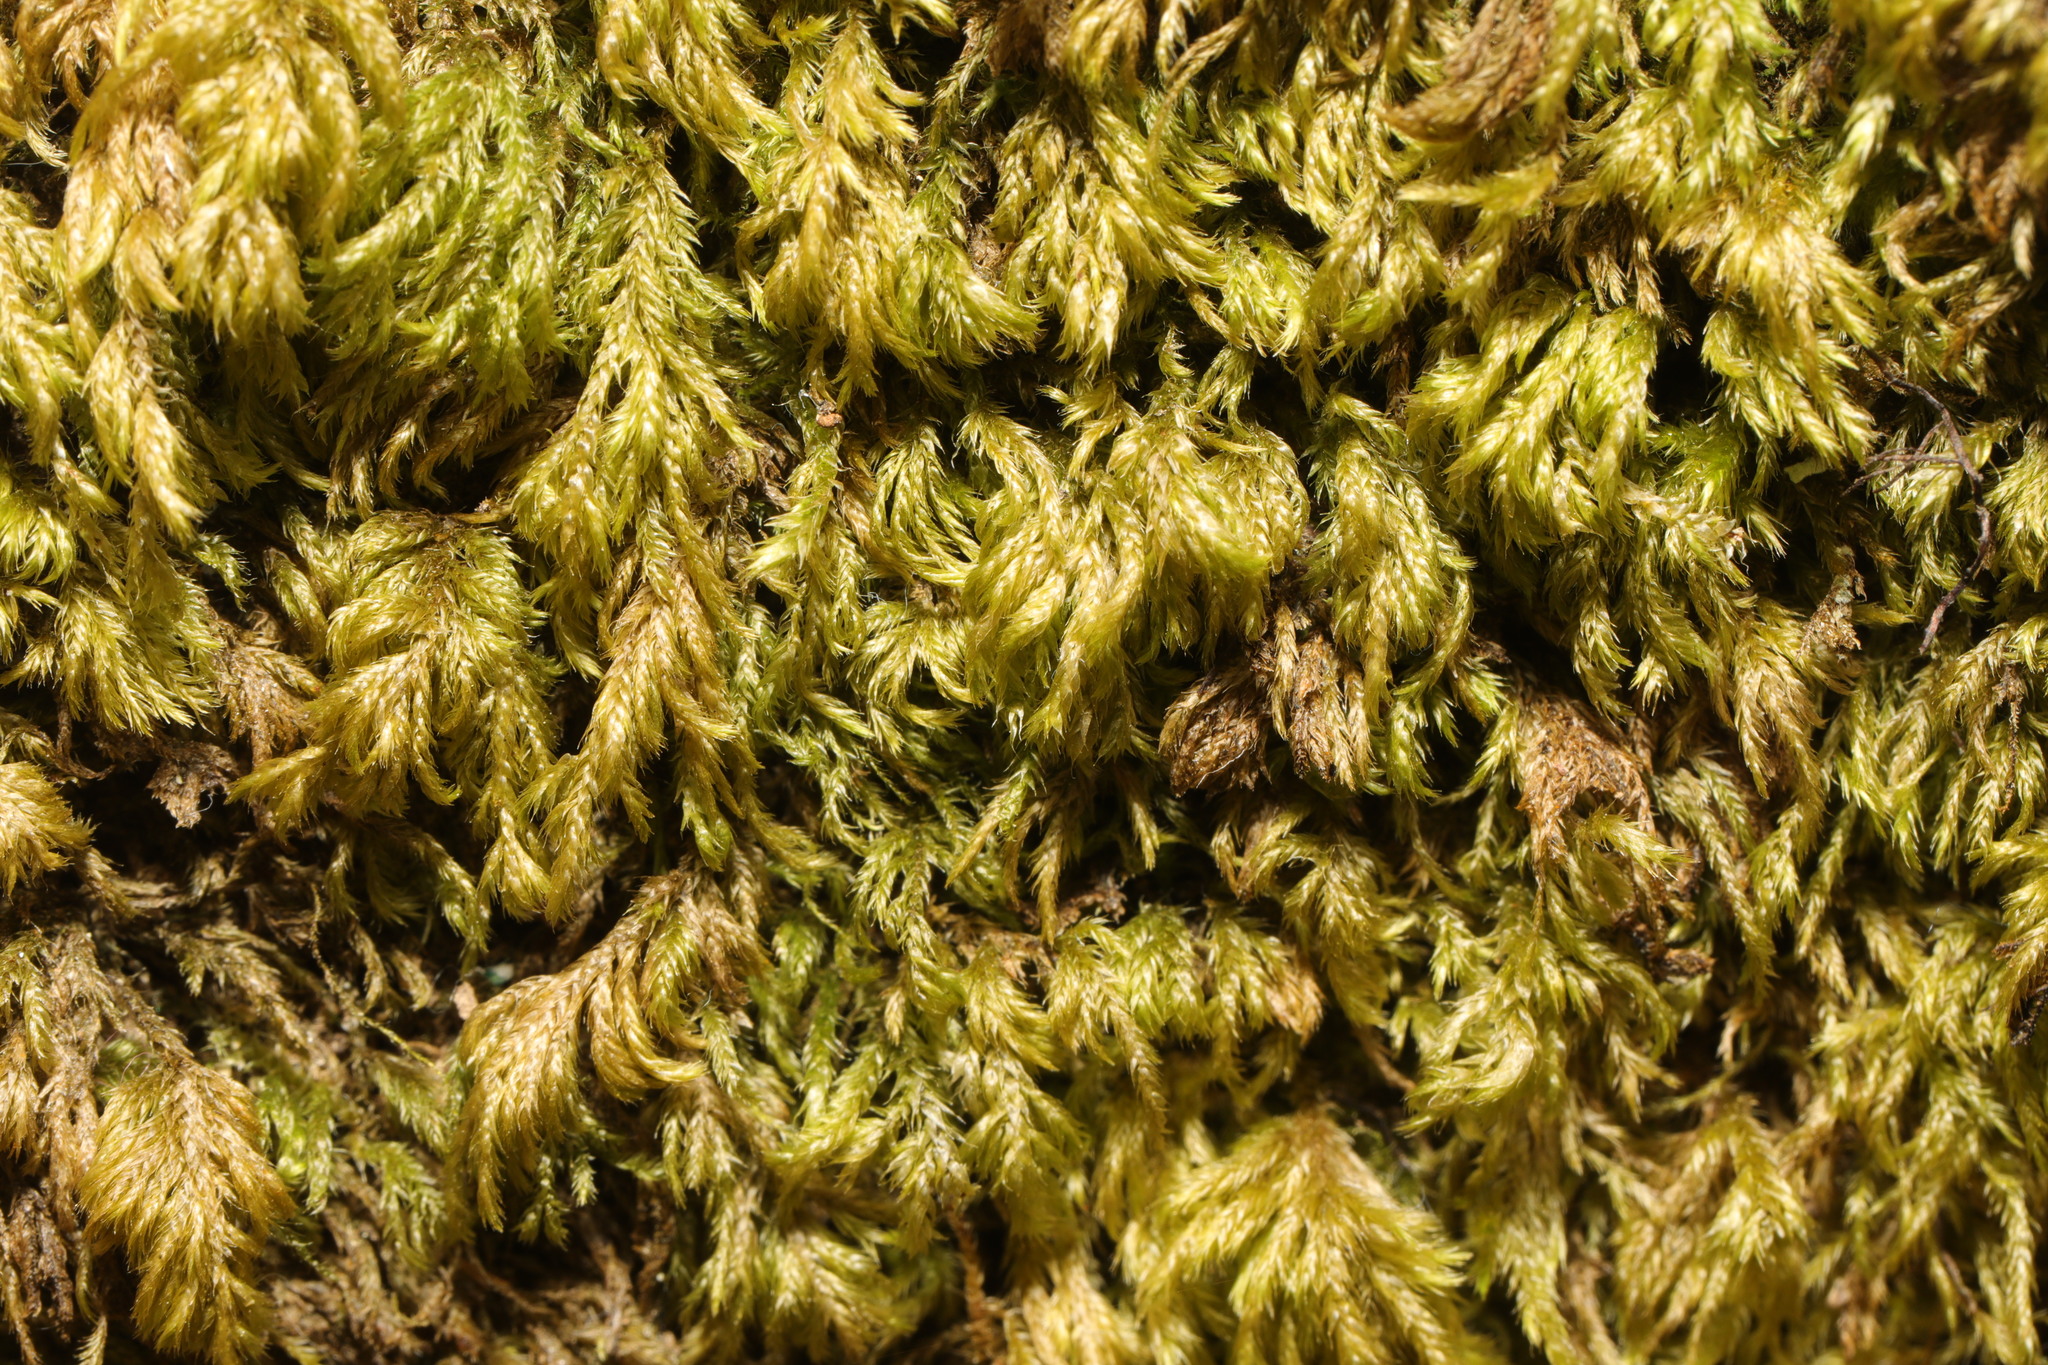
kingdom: Plantae
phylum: Bryophyta
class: Bryopsida
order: Hypnales
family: Lembophyllaceae
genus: Pseudisothecium
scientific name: Pseudisothecium myosuroides
